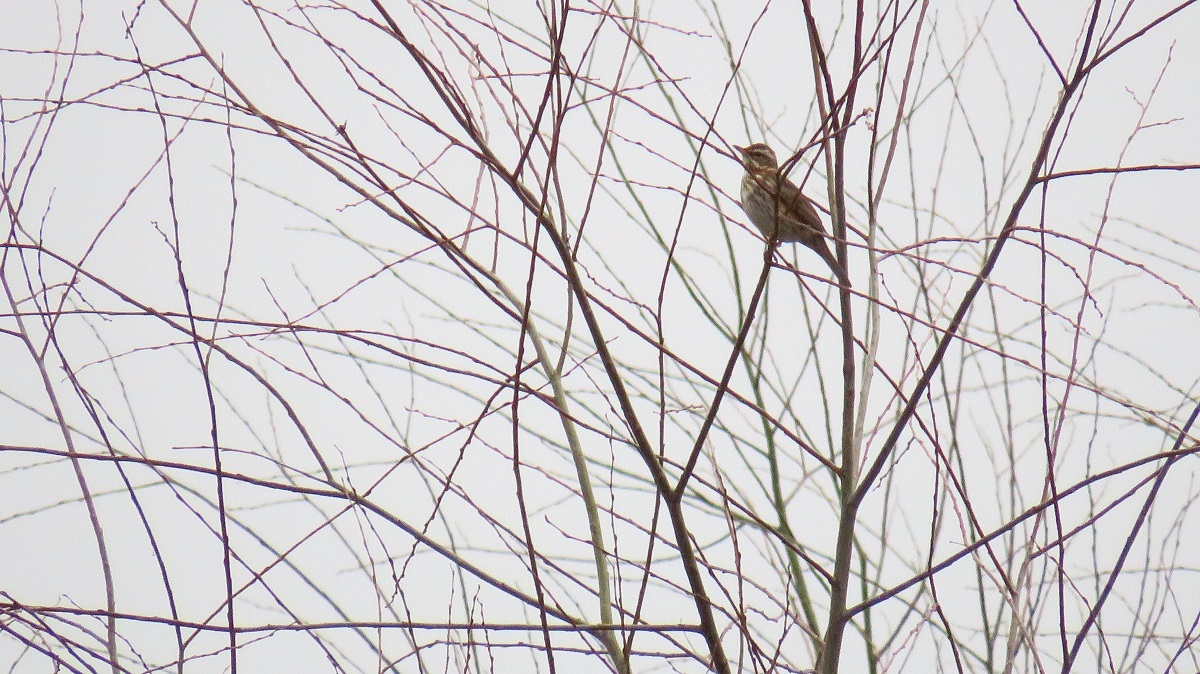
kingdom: Animalia
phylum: Chordata
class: Aves
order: Passeriformes
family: Turdidae
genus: Turdus
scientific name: Turdus iliacus
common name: Redwing
